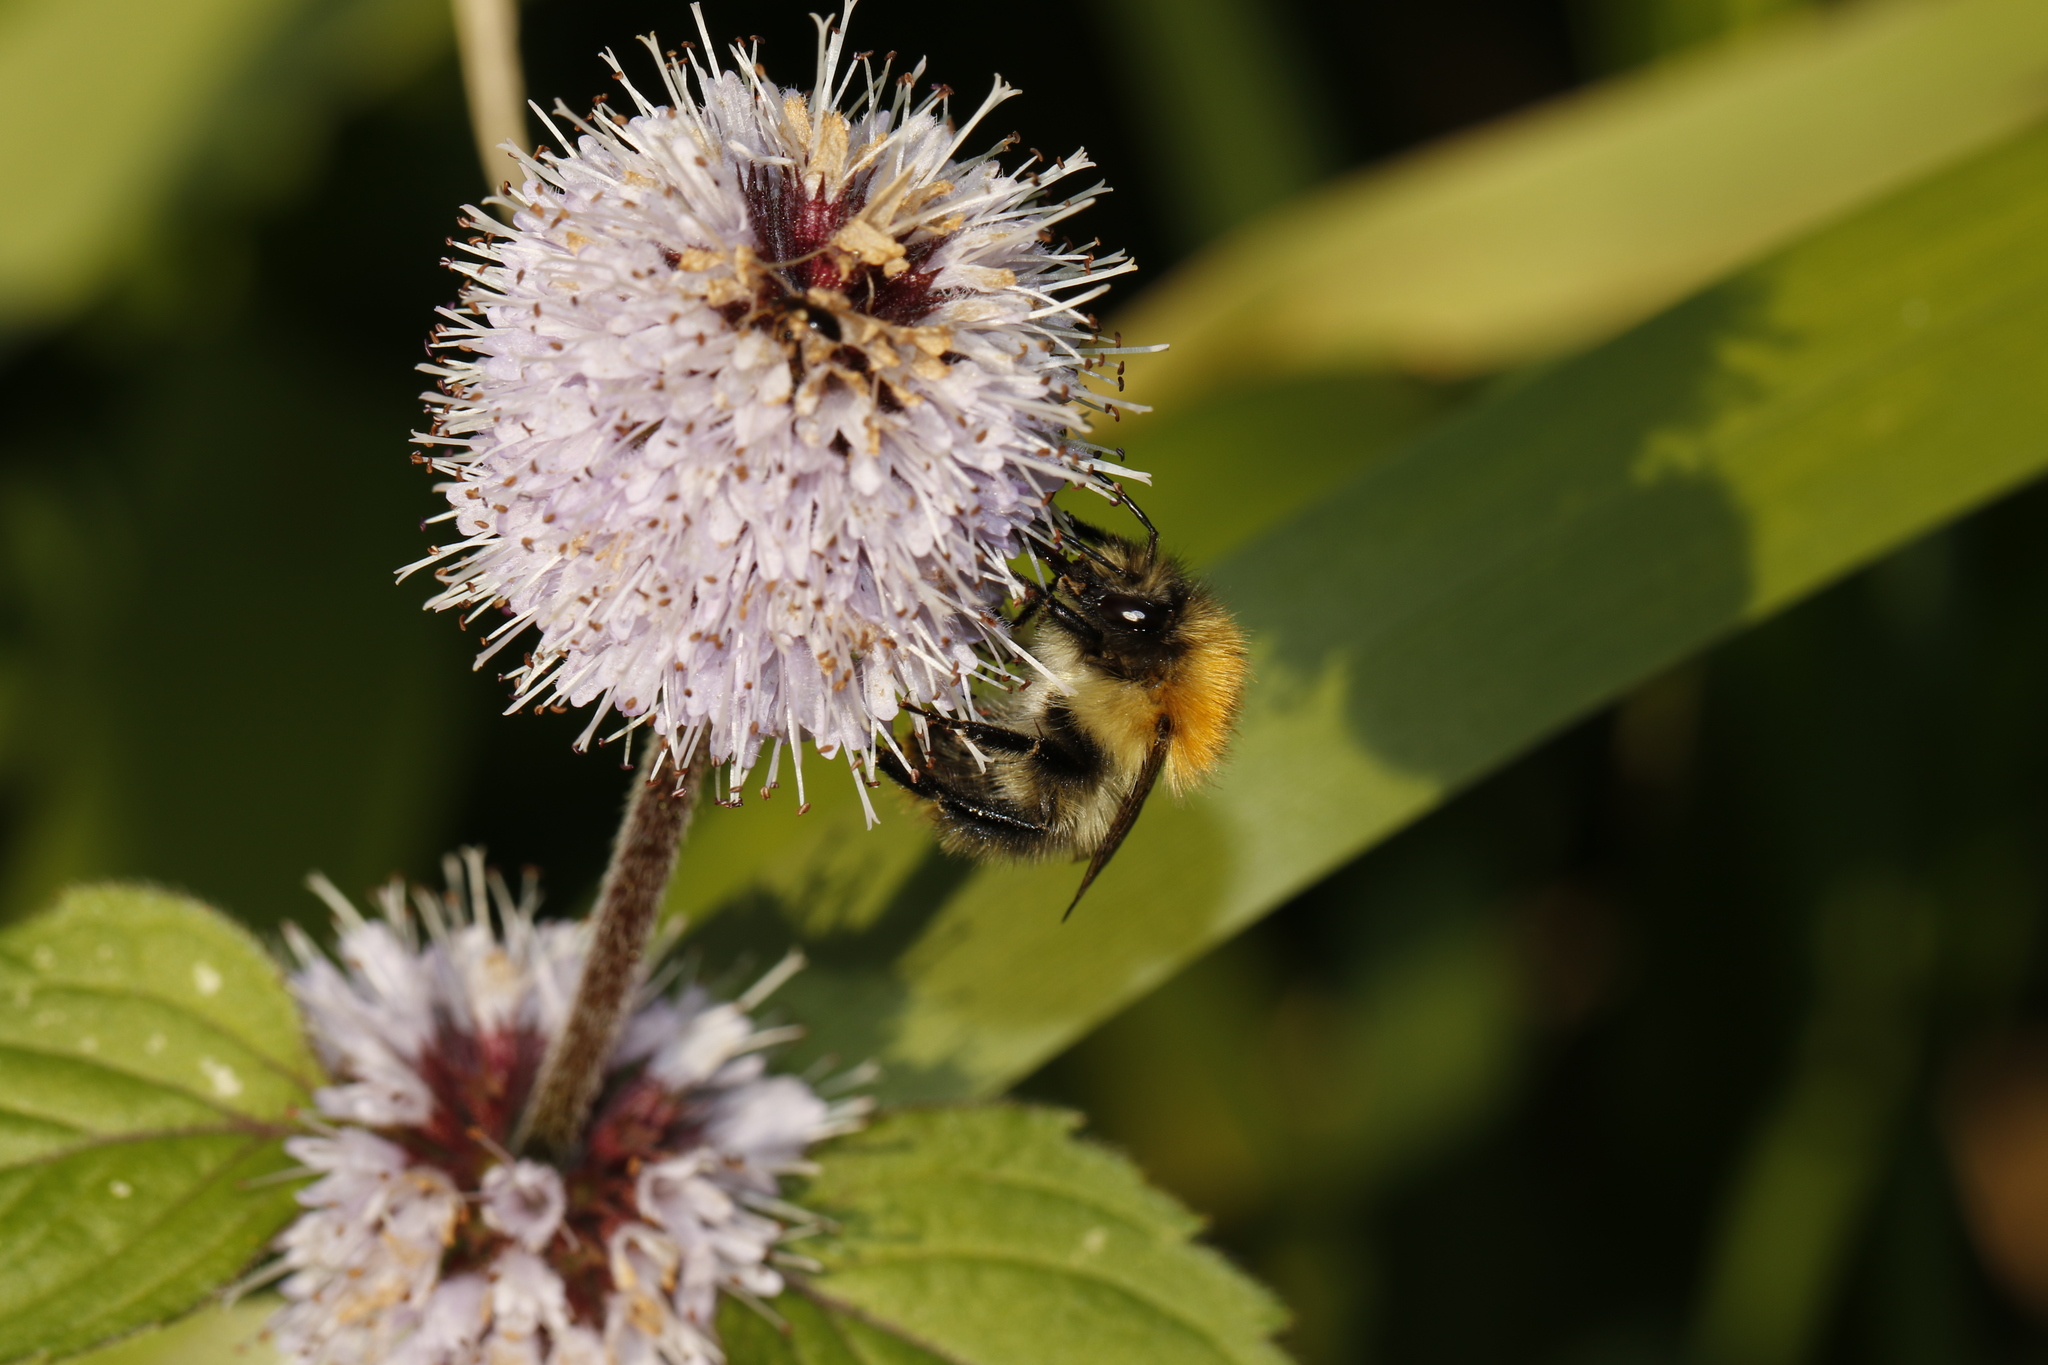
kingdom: Plantae
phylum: Tracheophyta
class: Magnoliopsida
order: Lamiales
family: Lamiaceae
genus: Mentha
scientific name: Mentha aquatica
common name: Water mint
